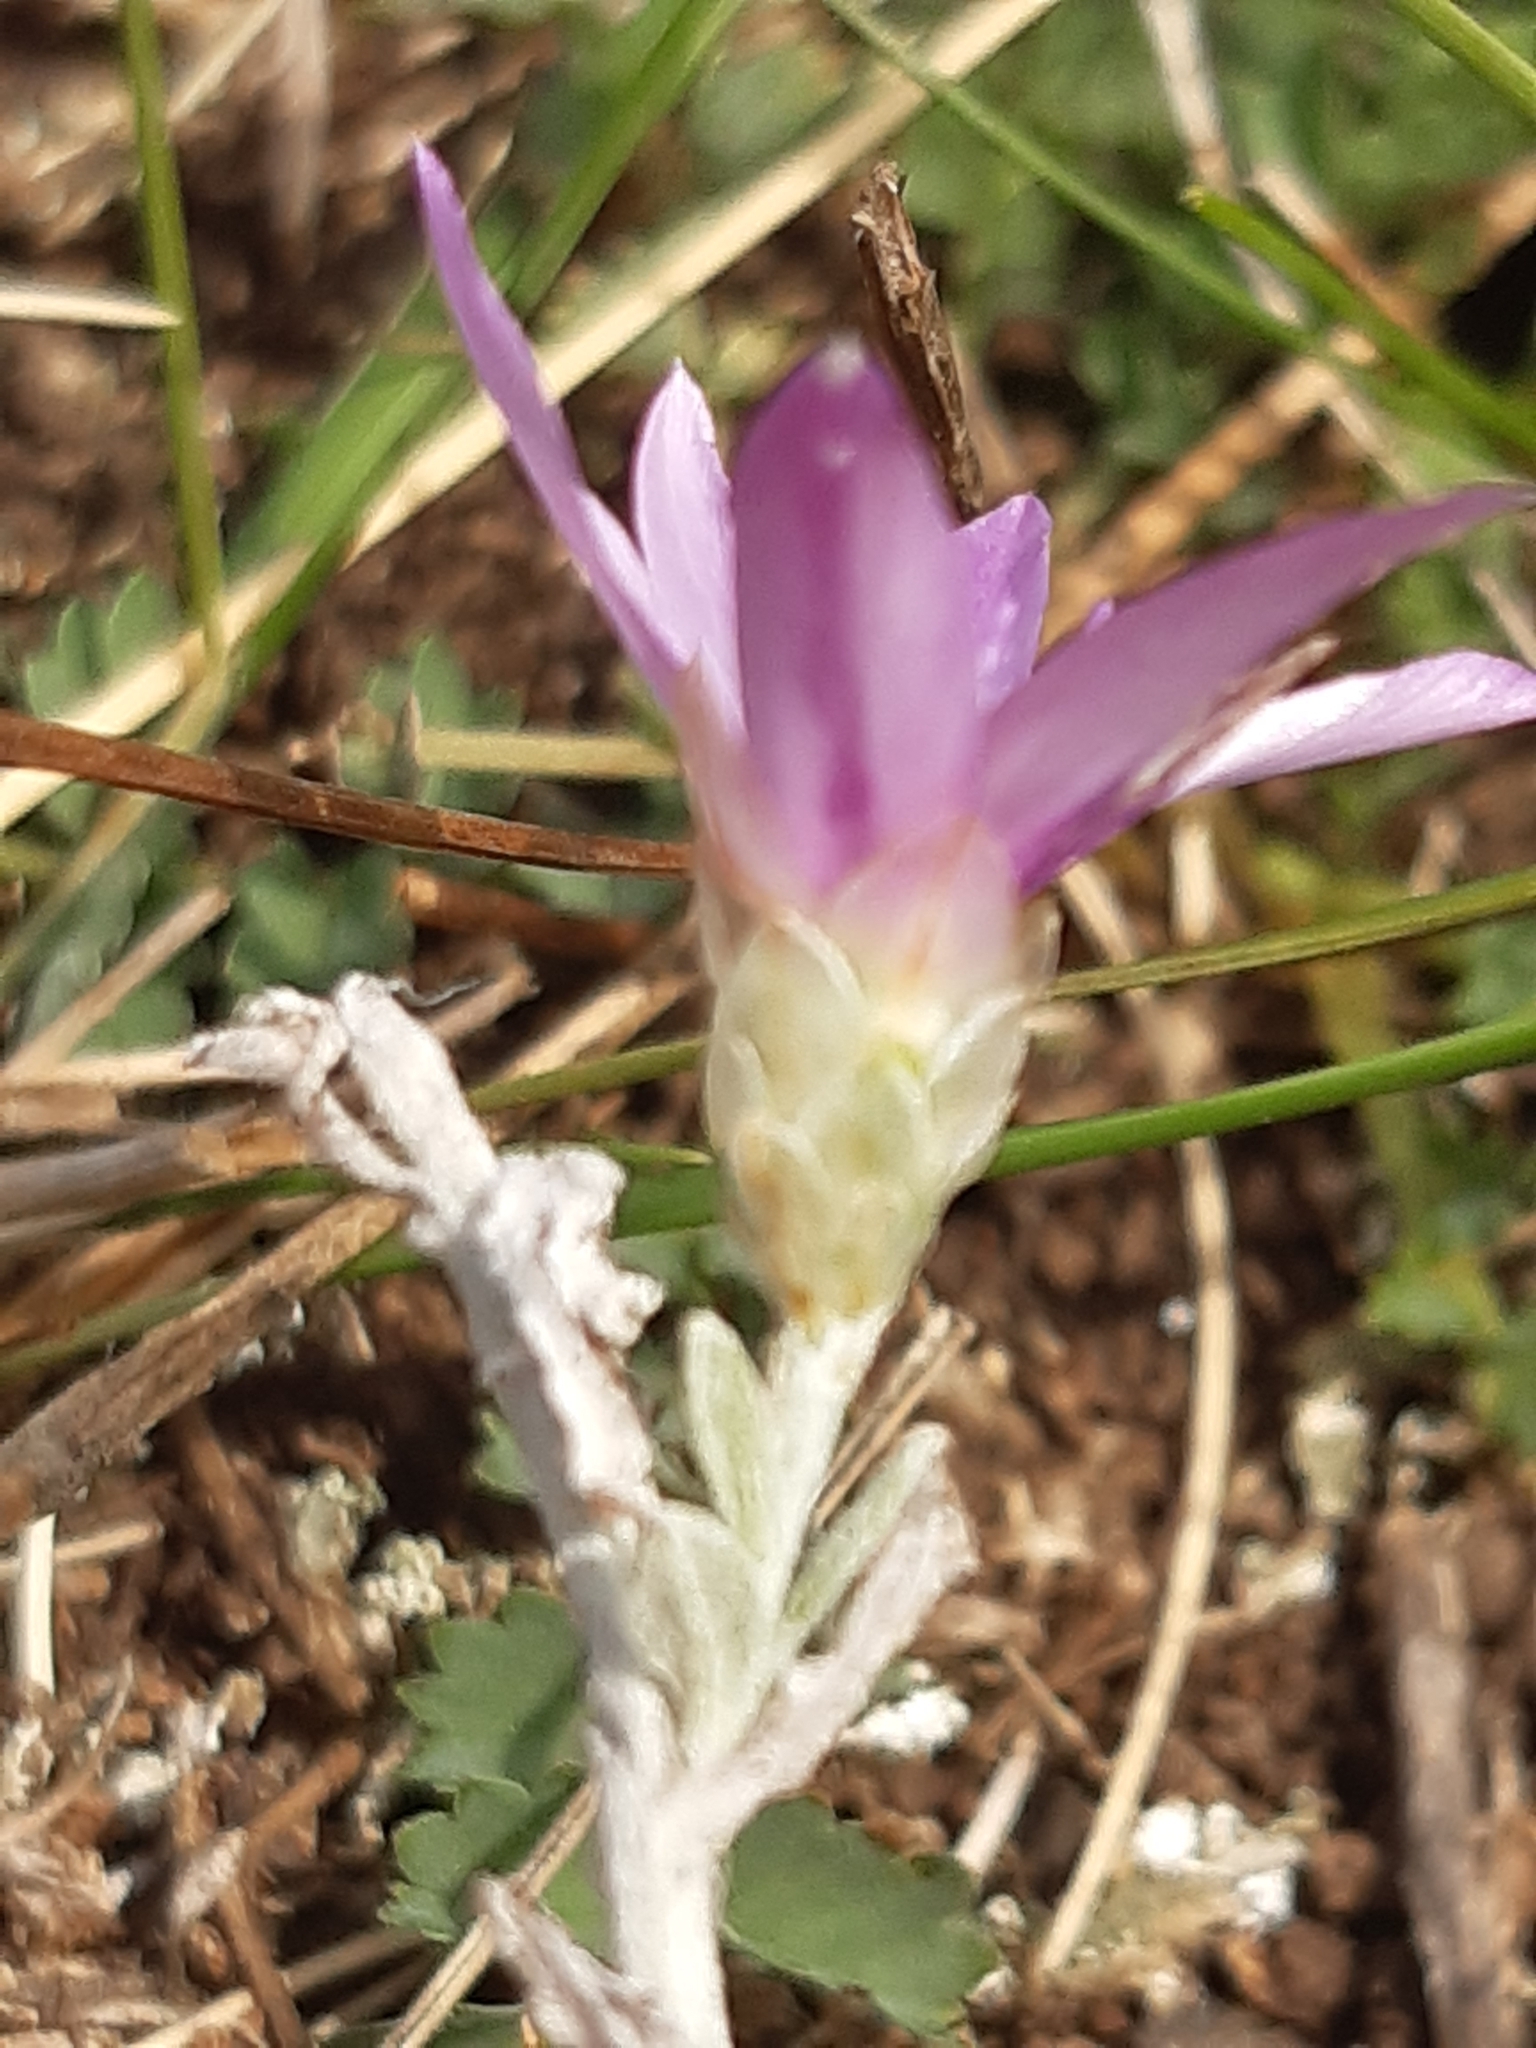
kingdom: Plantae
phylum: Tracheophyta
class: Magnoliopsida
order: Asterales
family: Asteraceae
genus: Xeranthemum
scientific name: Xeranthemum annuum
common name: Immortelle
